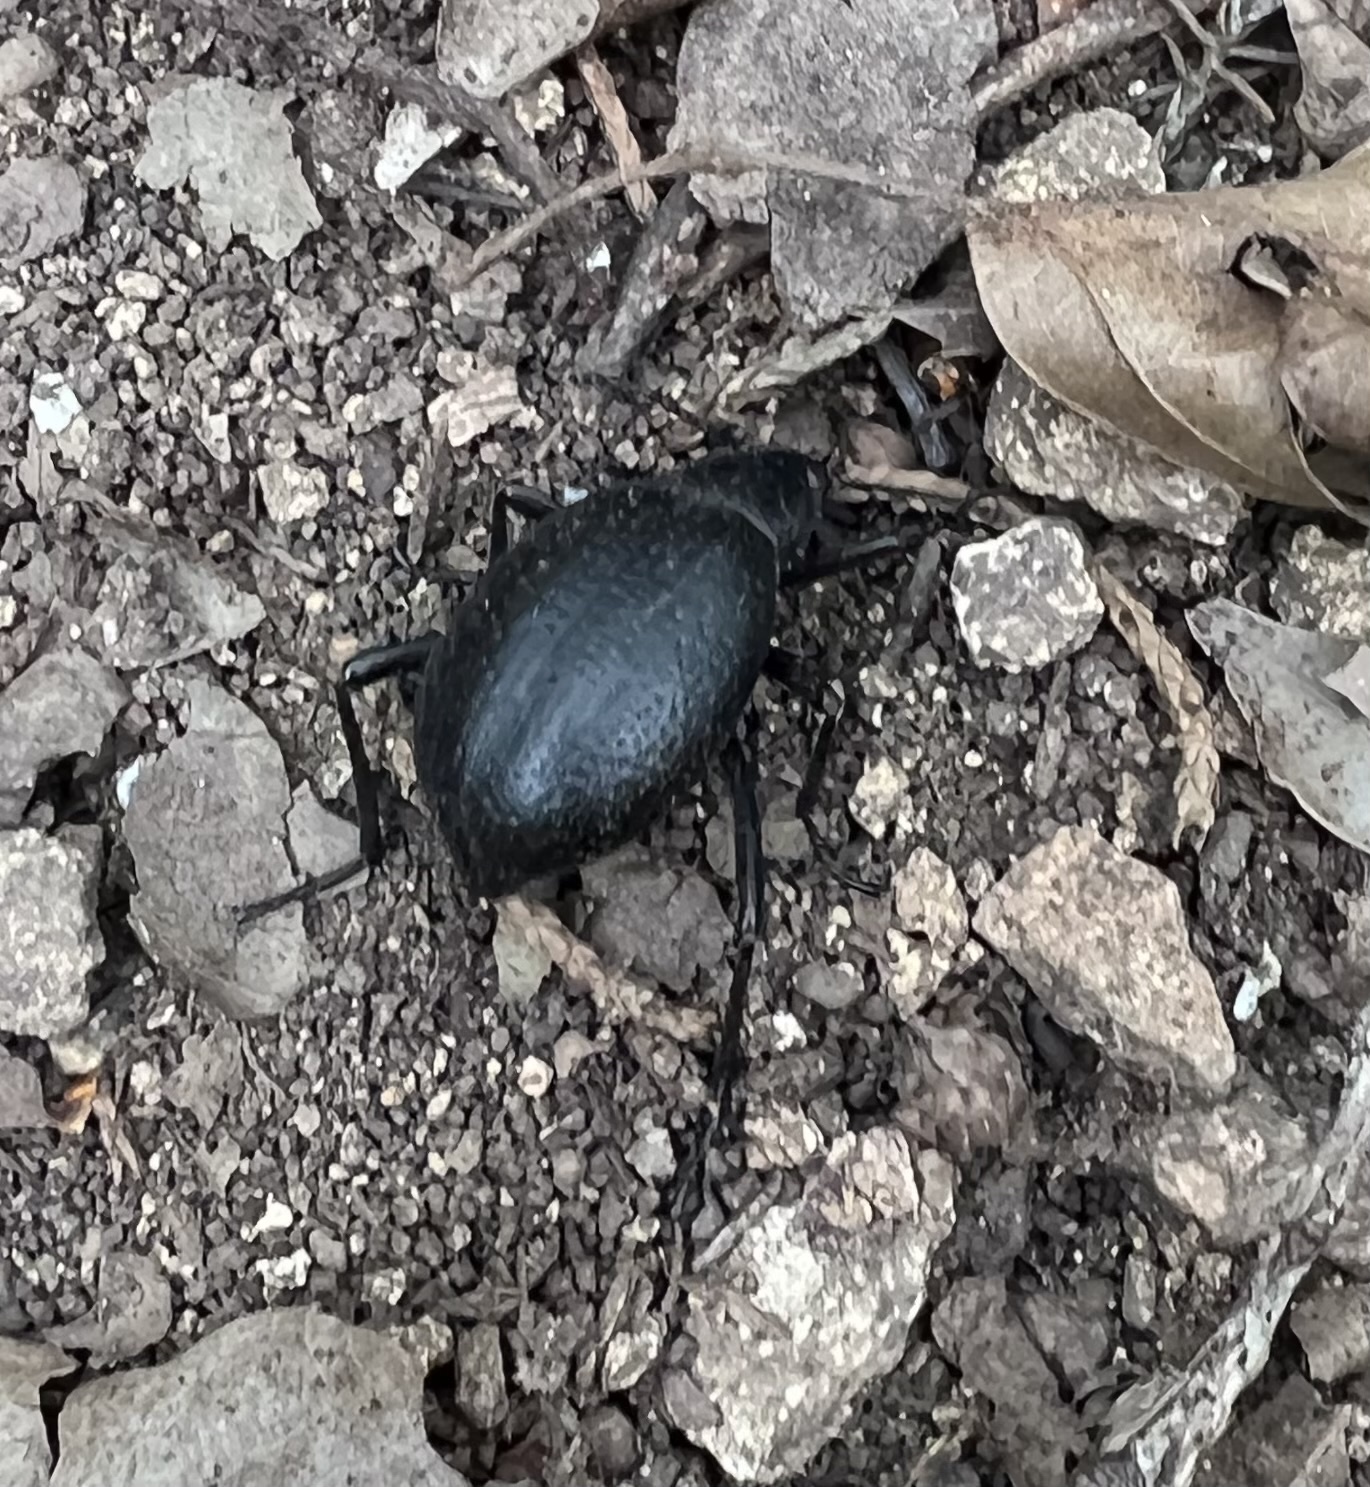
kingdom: Animalia
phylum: Arthropoda
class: Insecta
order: Coleoptera
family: Tenebrionidae
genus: Eleodes
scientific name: Eleodes goryi
